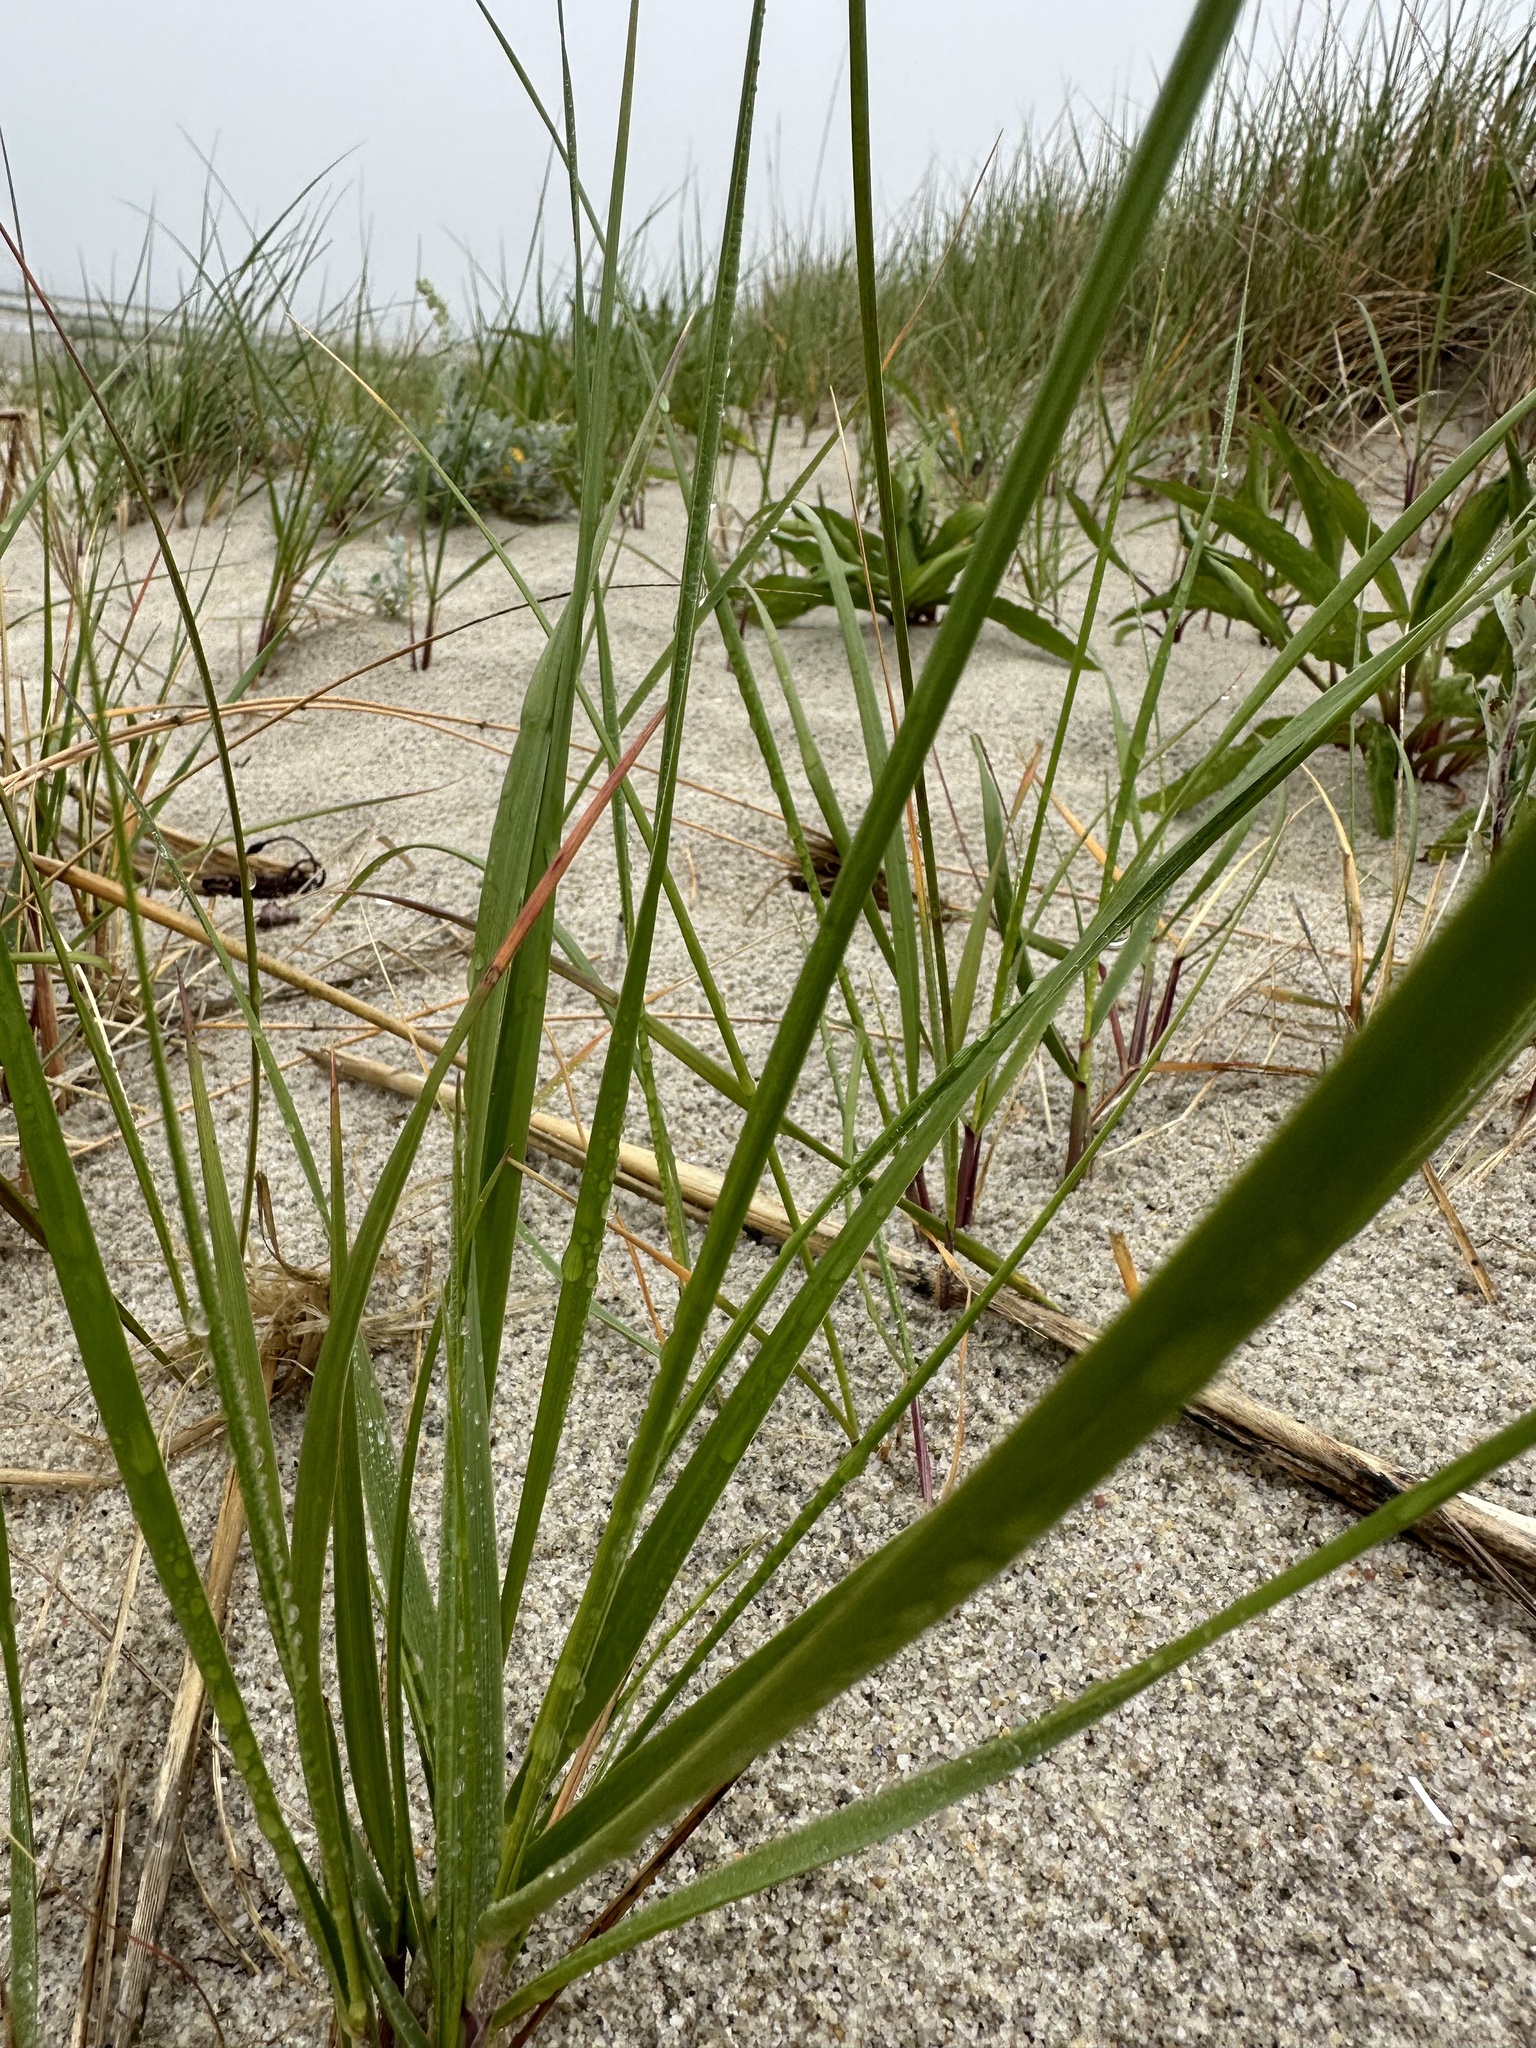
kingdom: Plantae
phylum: Tracheophyta
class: Liliopsida
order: Poales
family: Poaceae
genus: Calamagrostis
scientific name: Calamagrostis breviligulata
